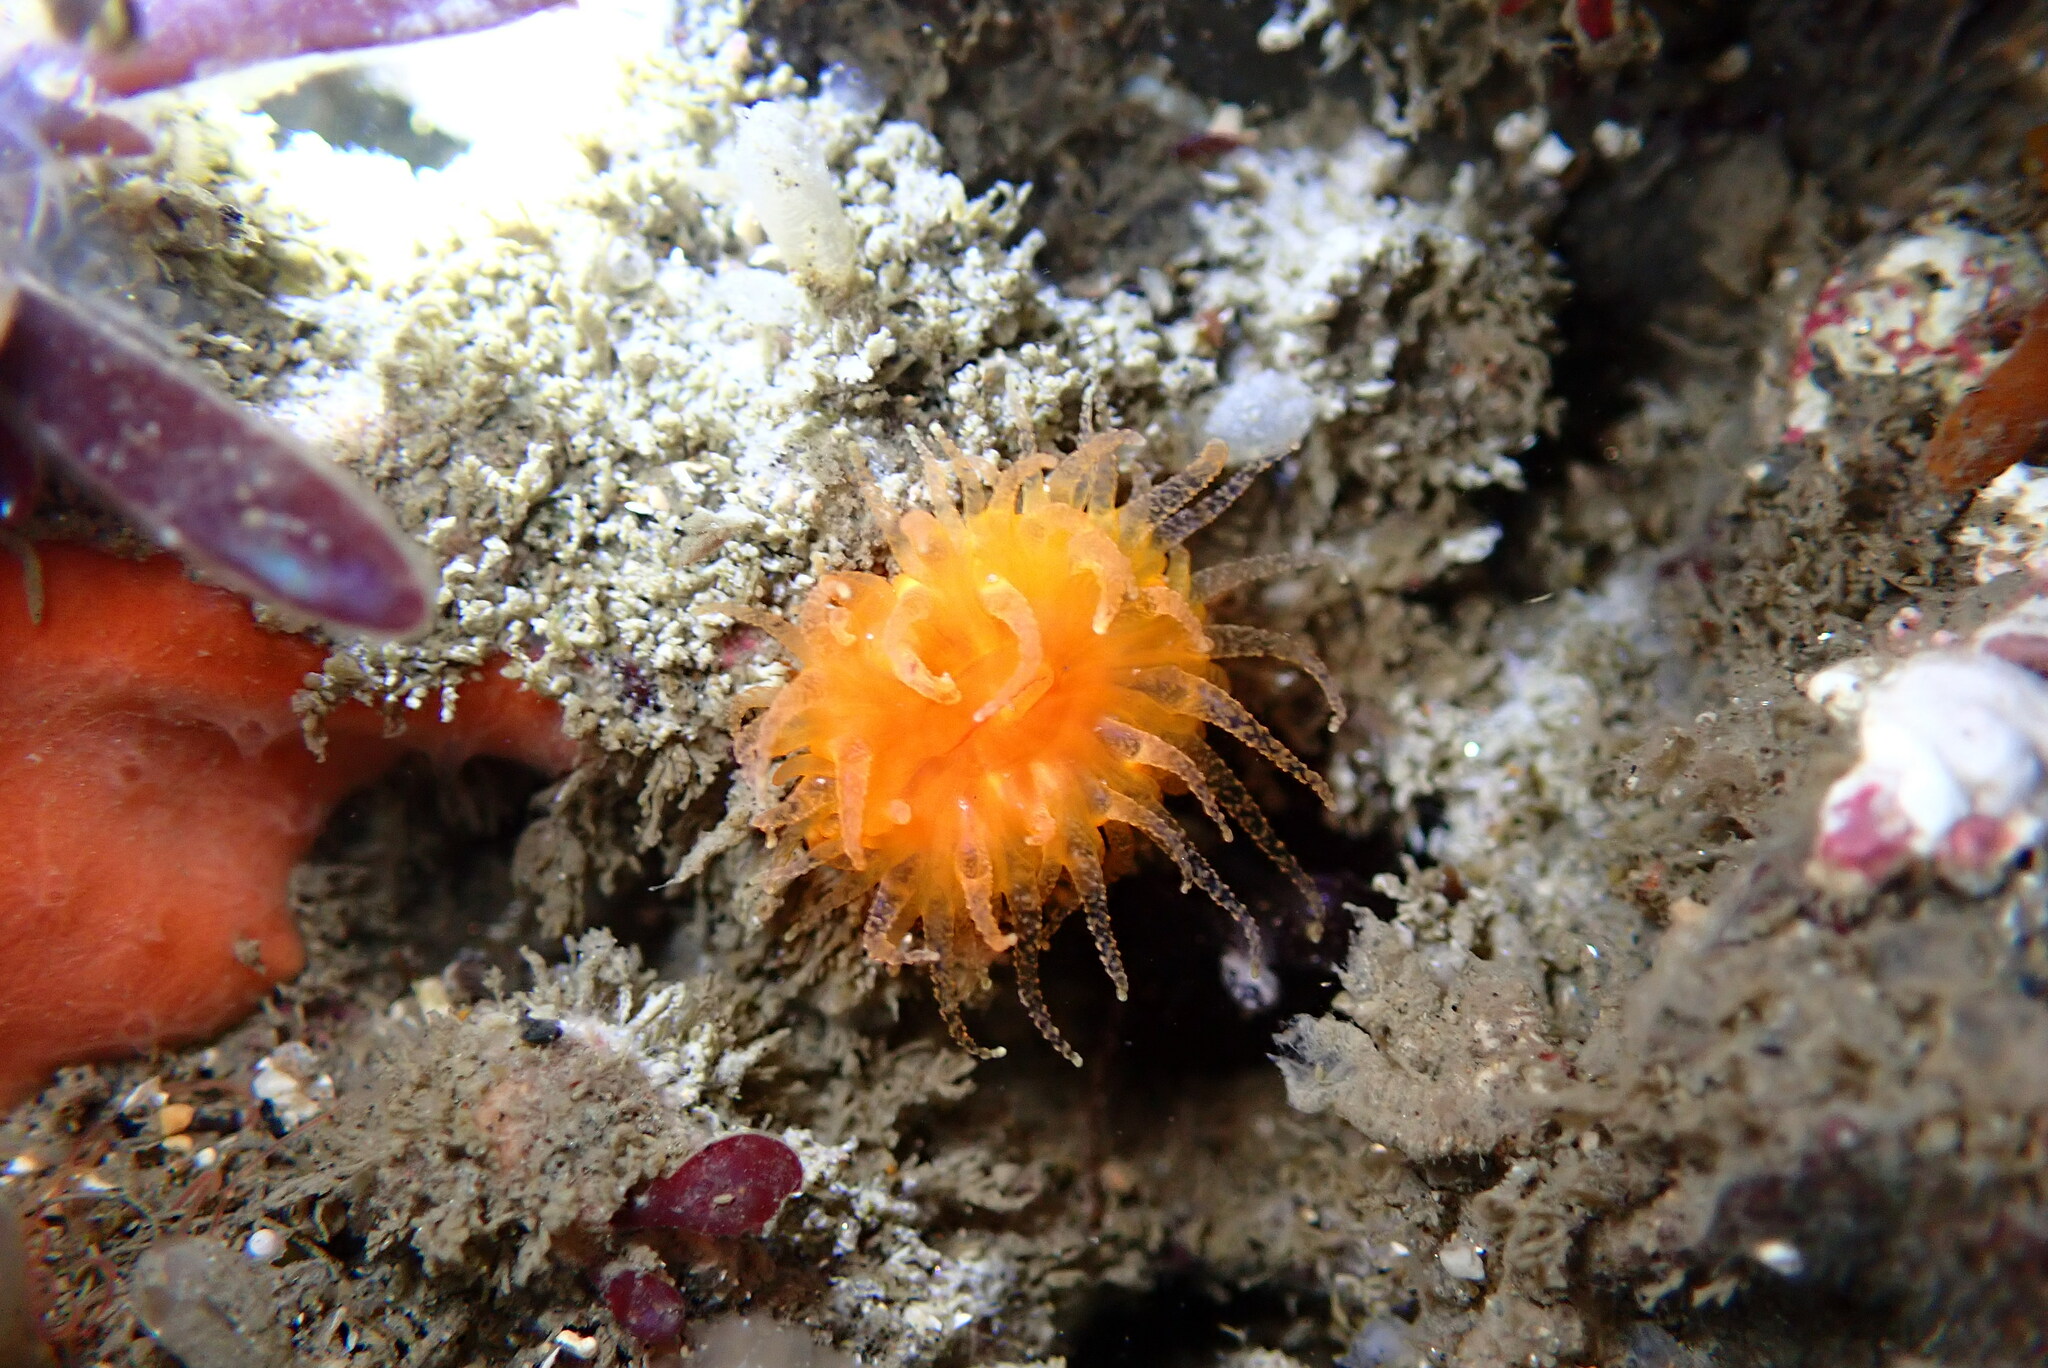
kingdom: Animalia
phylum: Cnidaria
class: Anthozoa
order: Scleractinia
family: Dendrophylliidae
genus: Balanophyllia
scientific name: Balanophyllia elegans
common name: Orange stony coral
